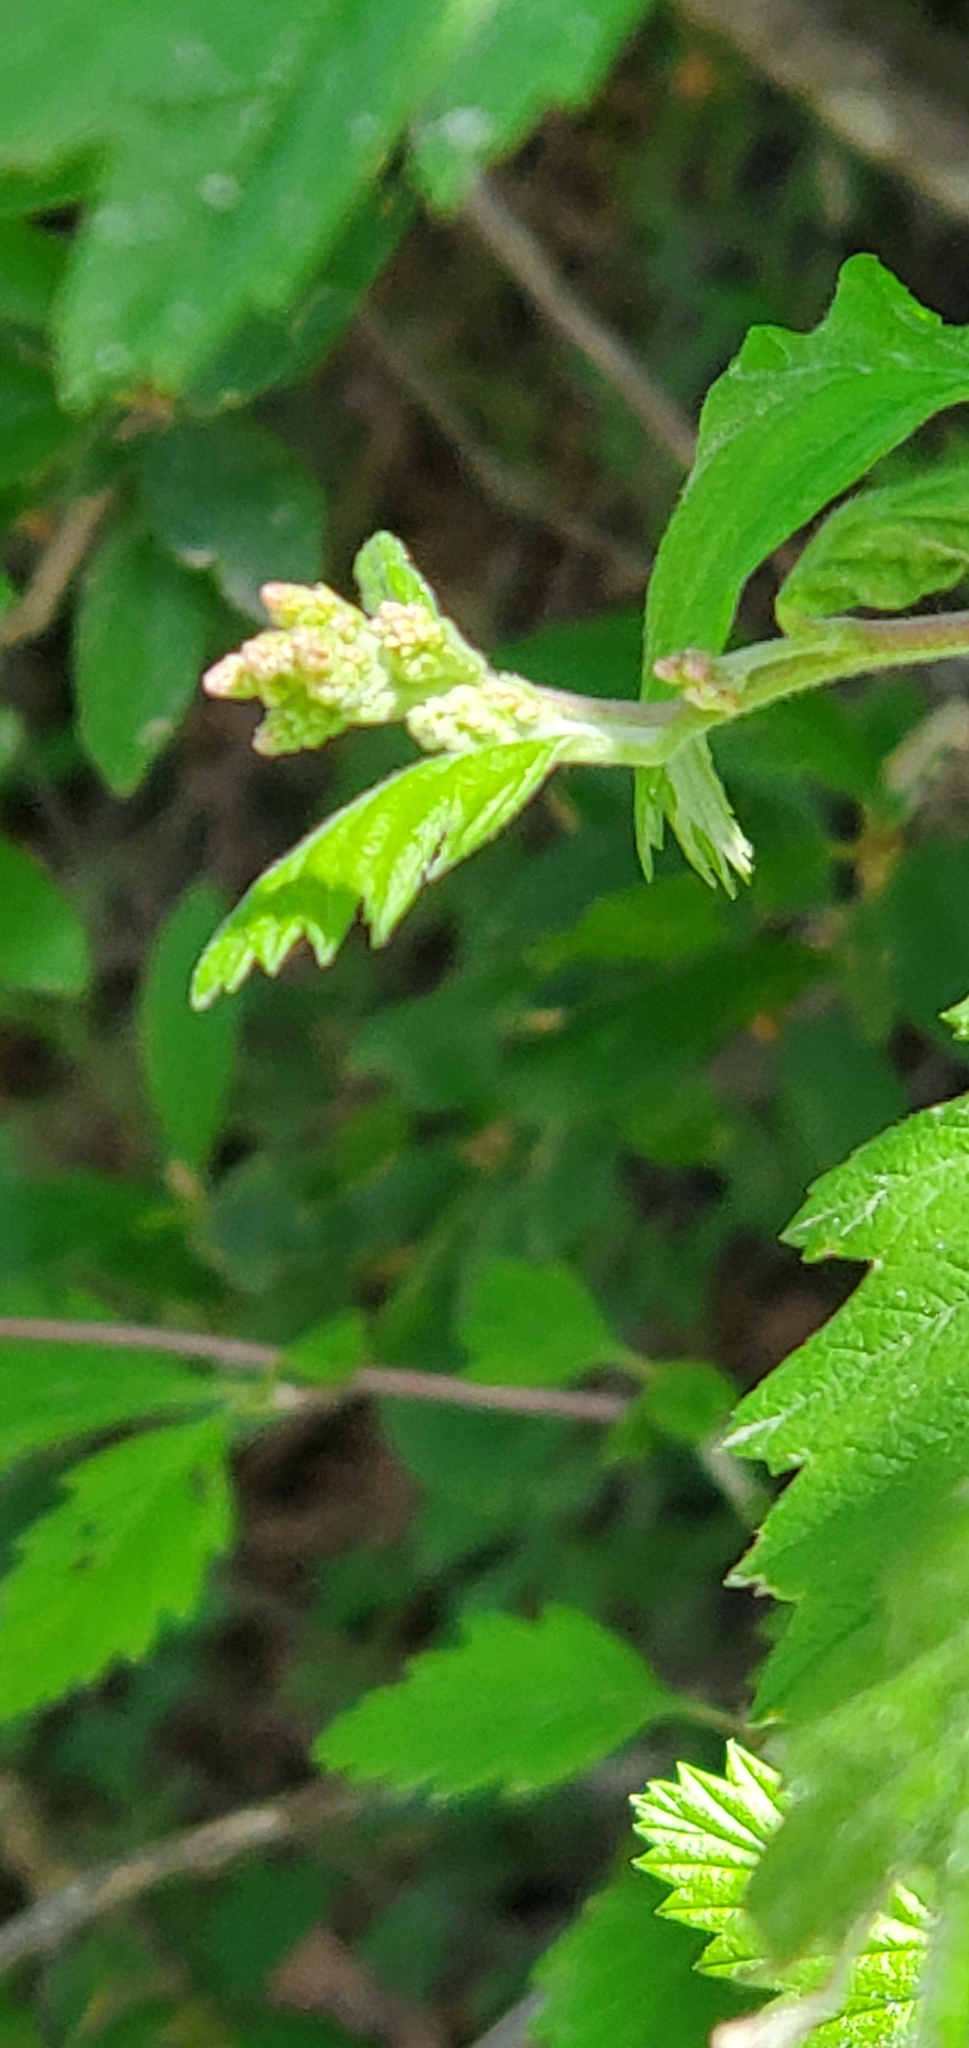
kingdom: Plantae
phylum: Tracheophyta
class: Magnoliopsida
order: Rosales
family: Rosaceae
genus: Holodiscus
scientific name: Holodiscus discolor
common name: Oceanspray
